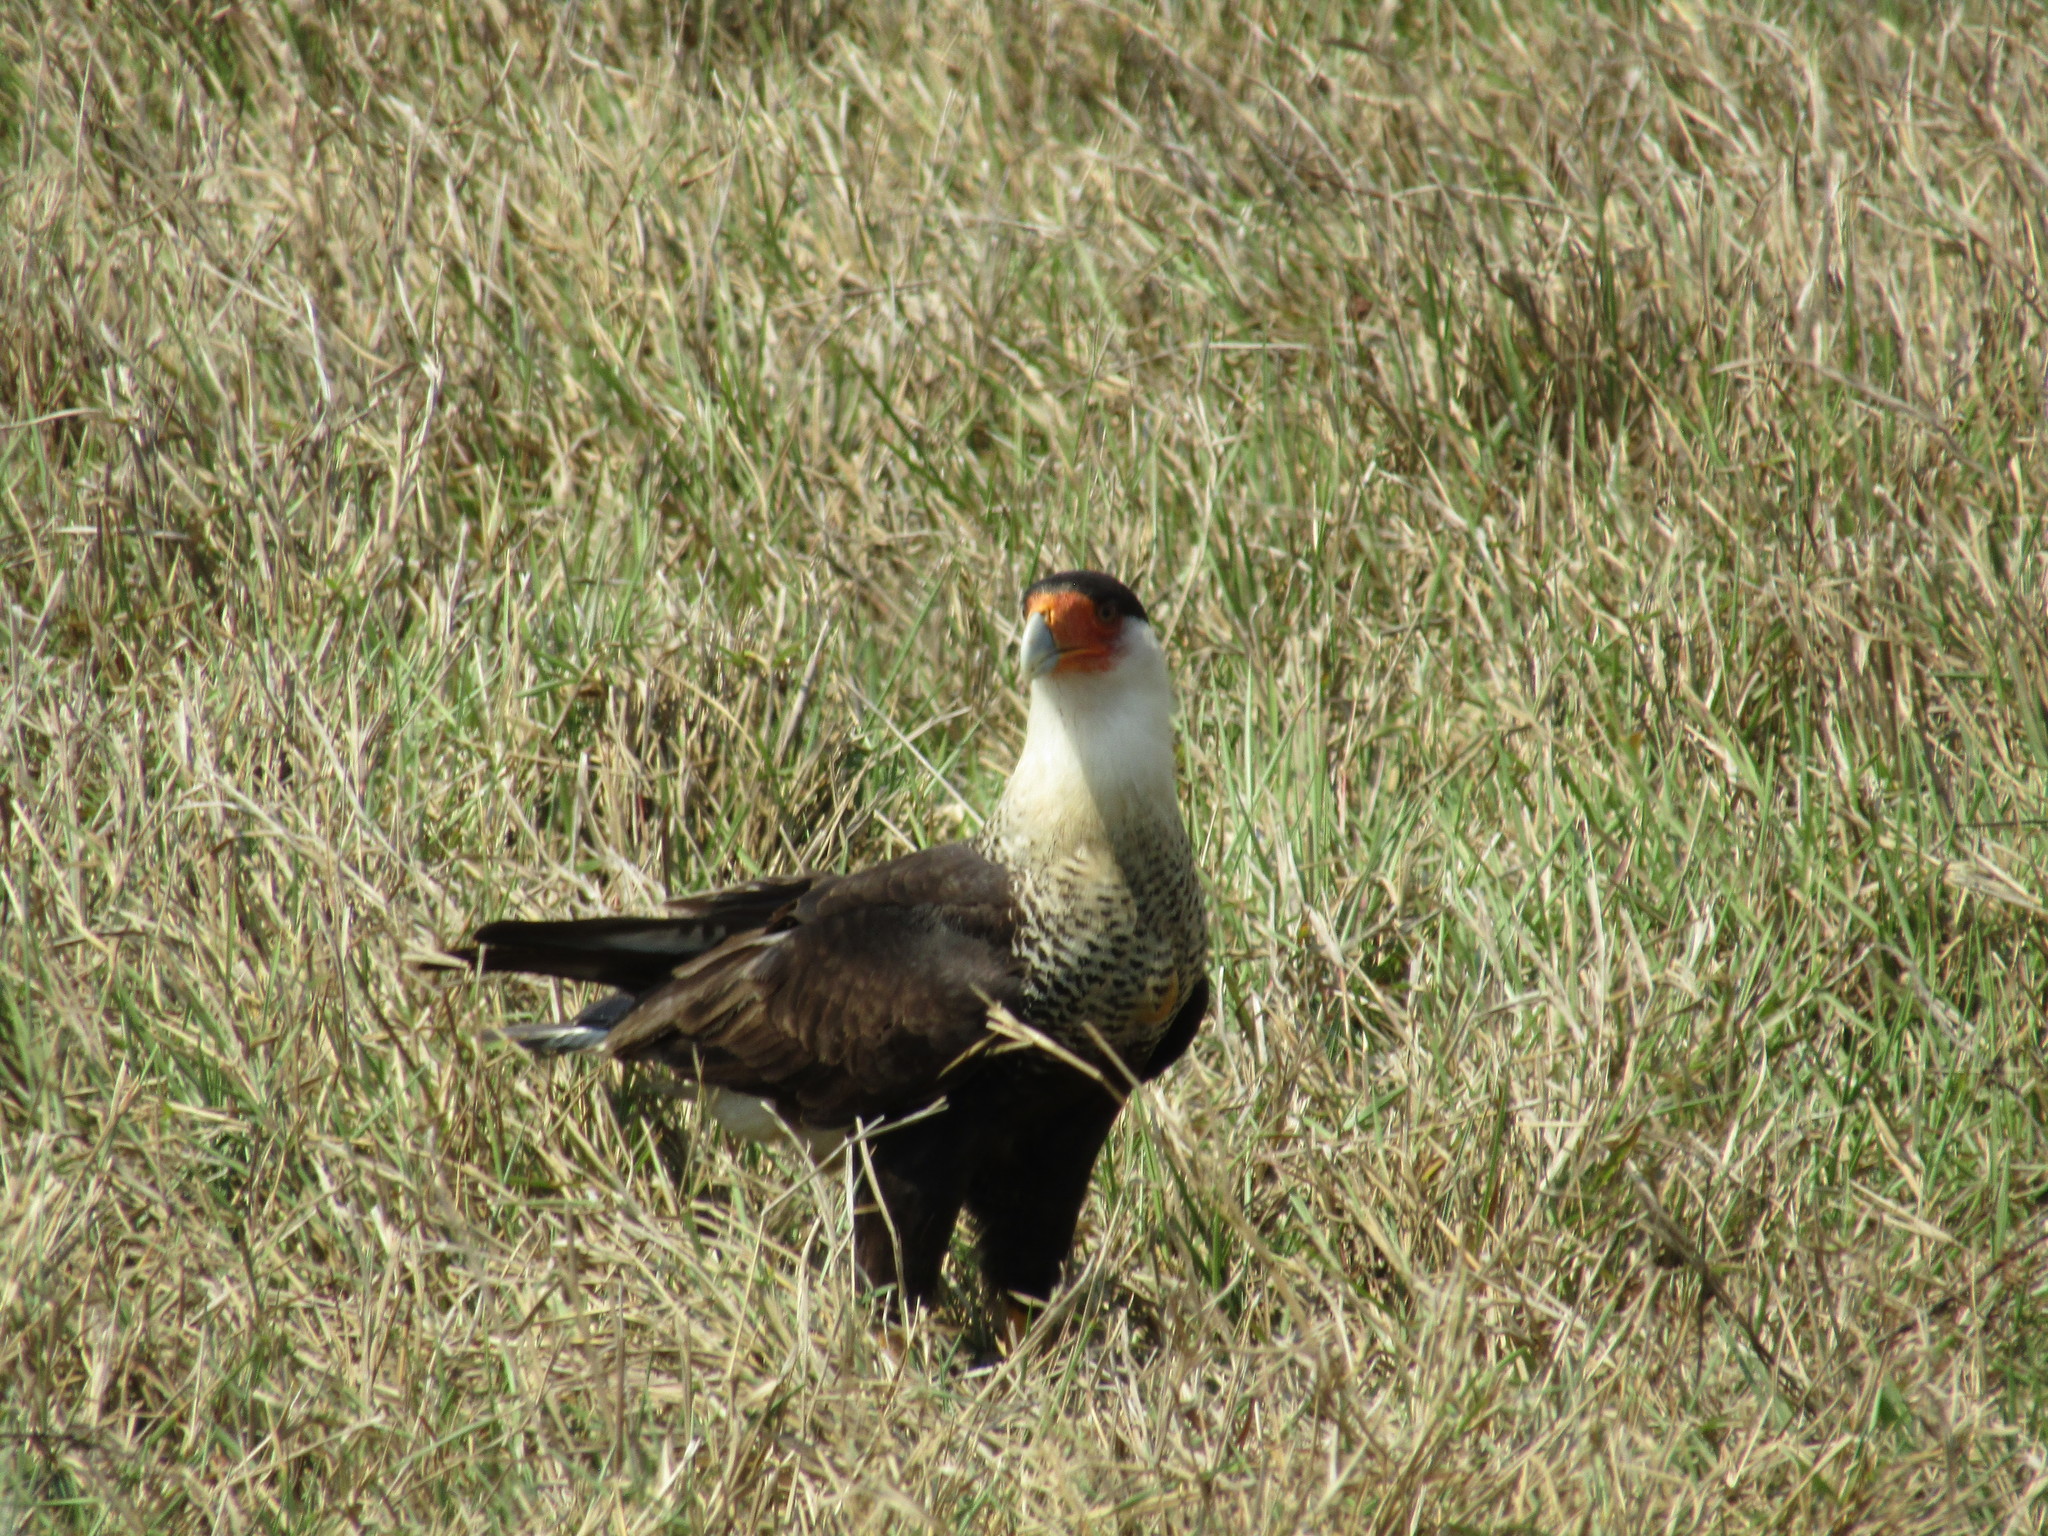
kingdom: Animalia
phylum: Chordata
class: Aves
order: Falconiformes
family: Falconidae
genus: Caracara
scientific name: Caracara plancus
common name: Southern caracara
